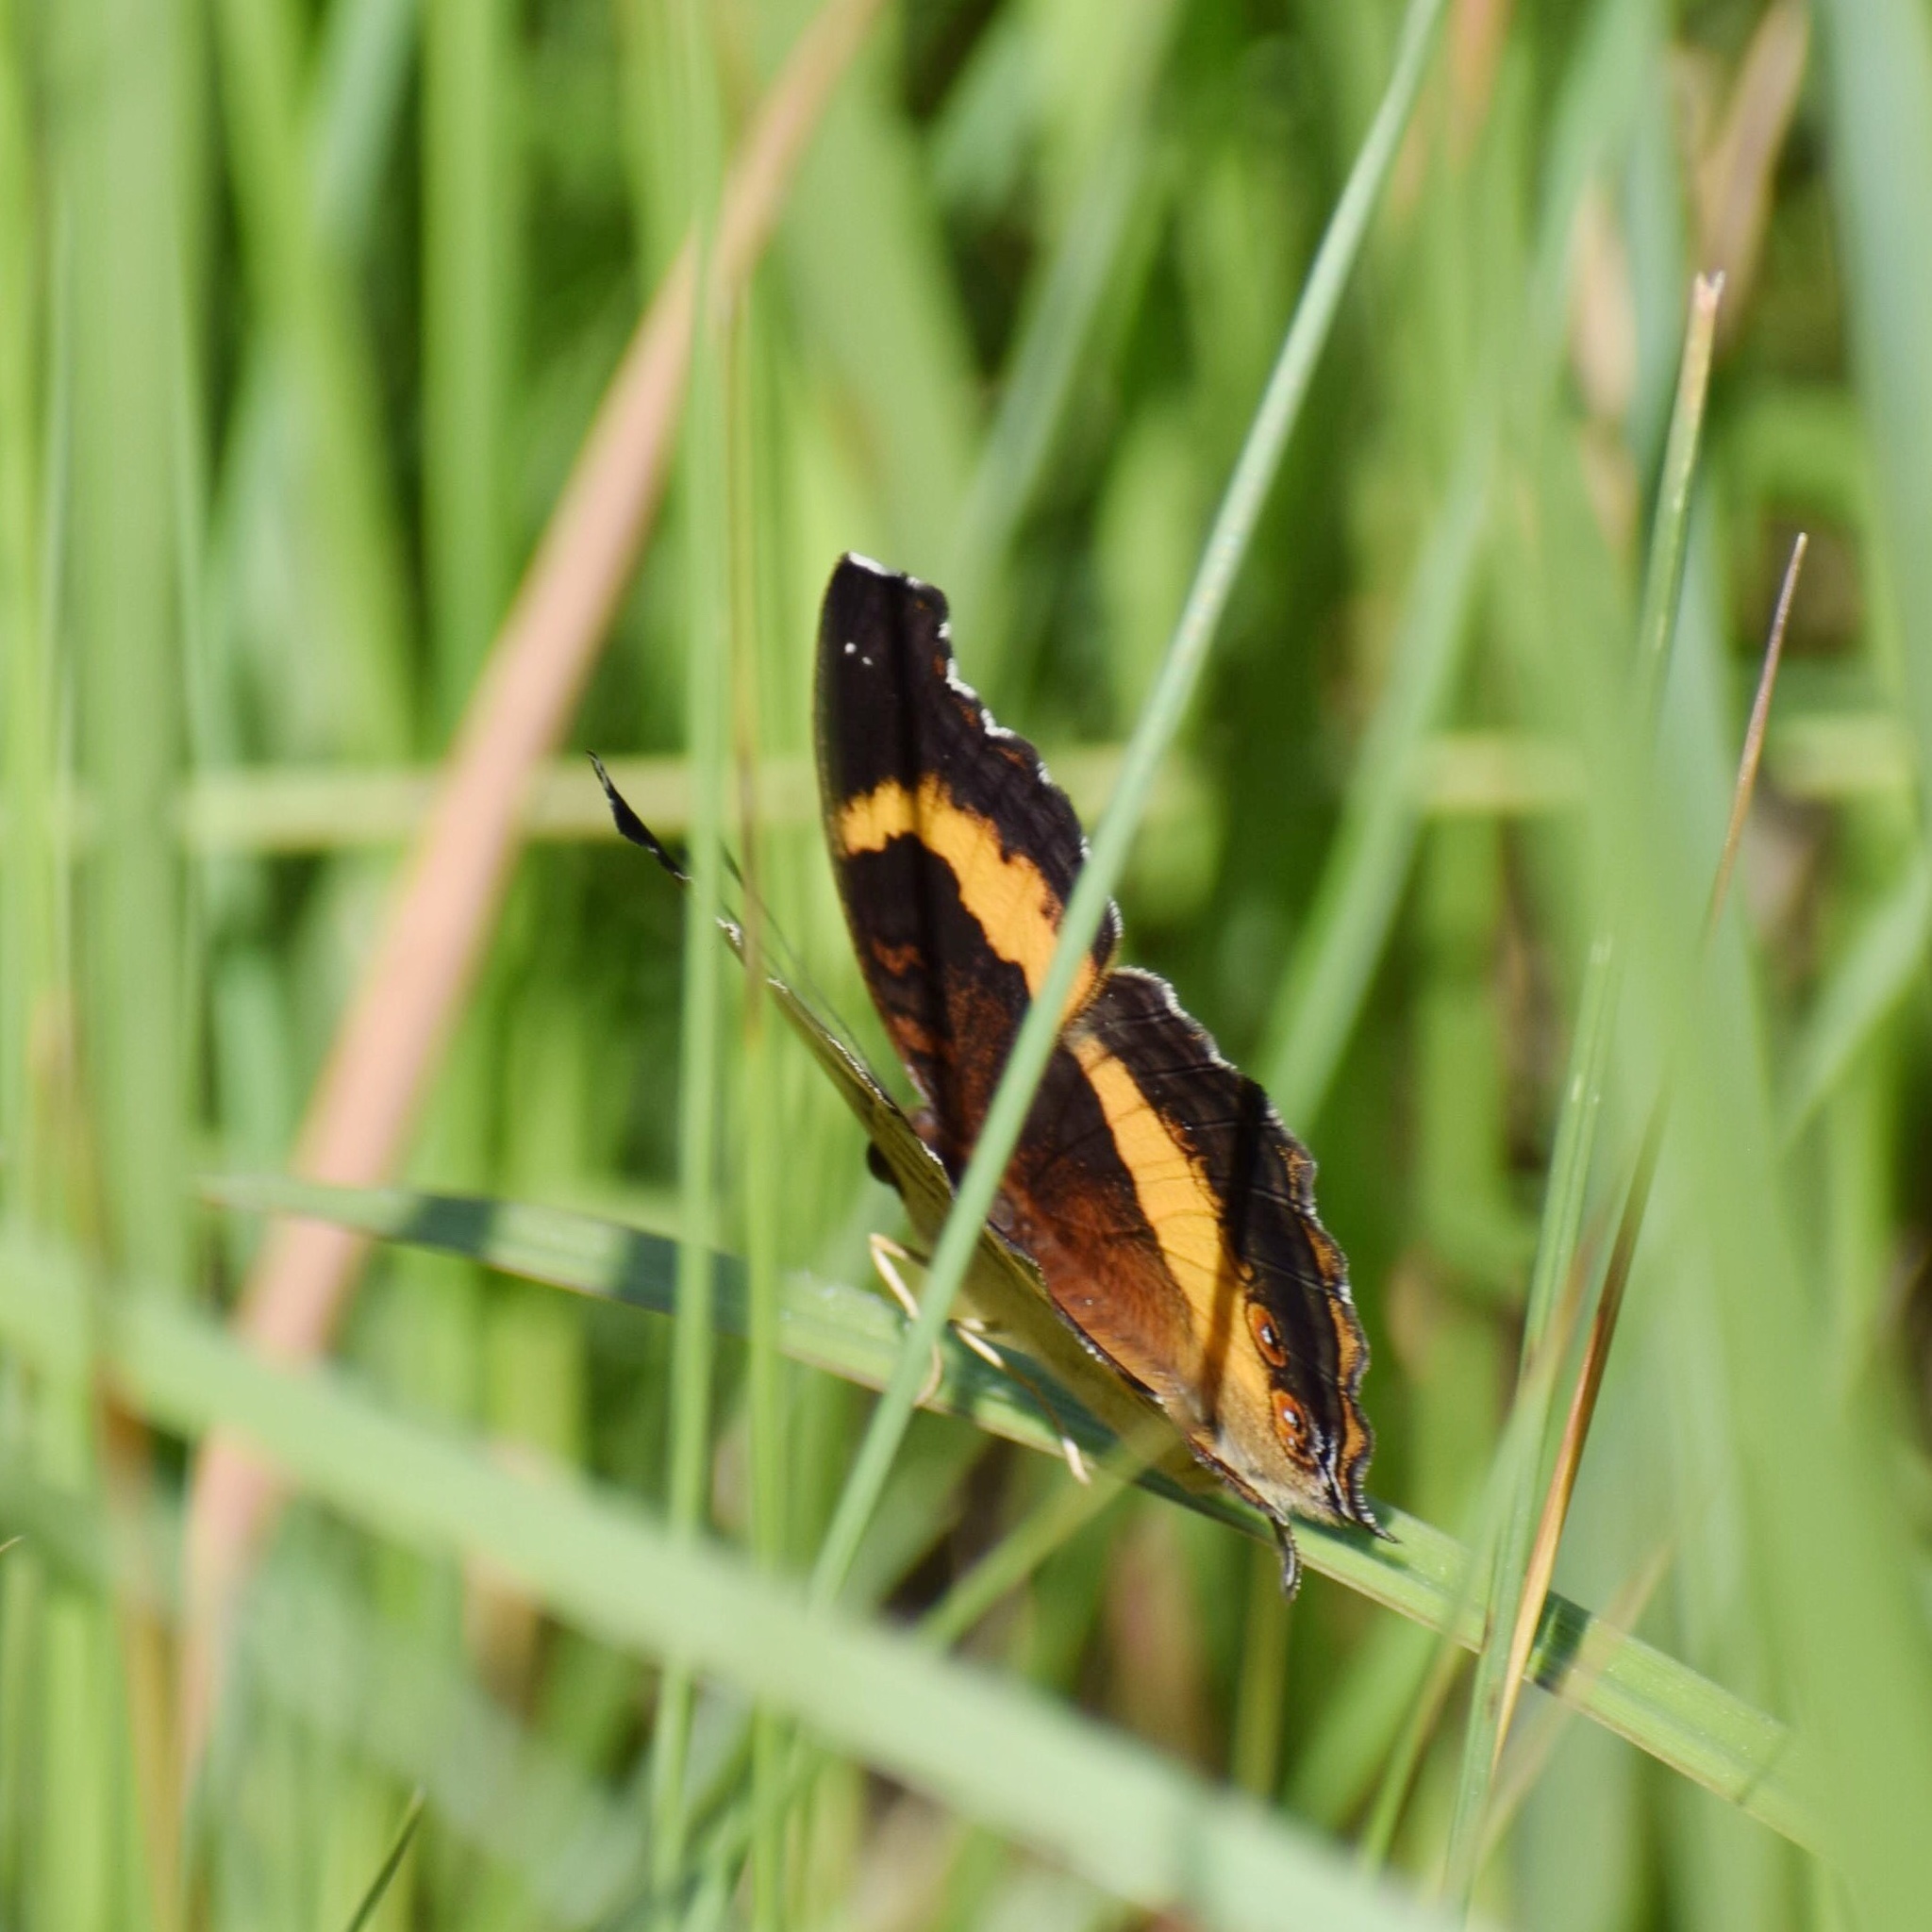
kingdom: Animalia
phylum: Arthropoda
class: Insecta
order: Lepidoptera
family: Nymphalidae
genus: Junonia
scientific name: Junonia terea
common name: Soldier pansy
